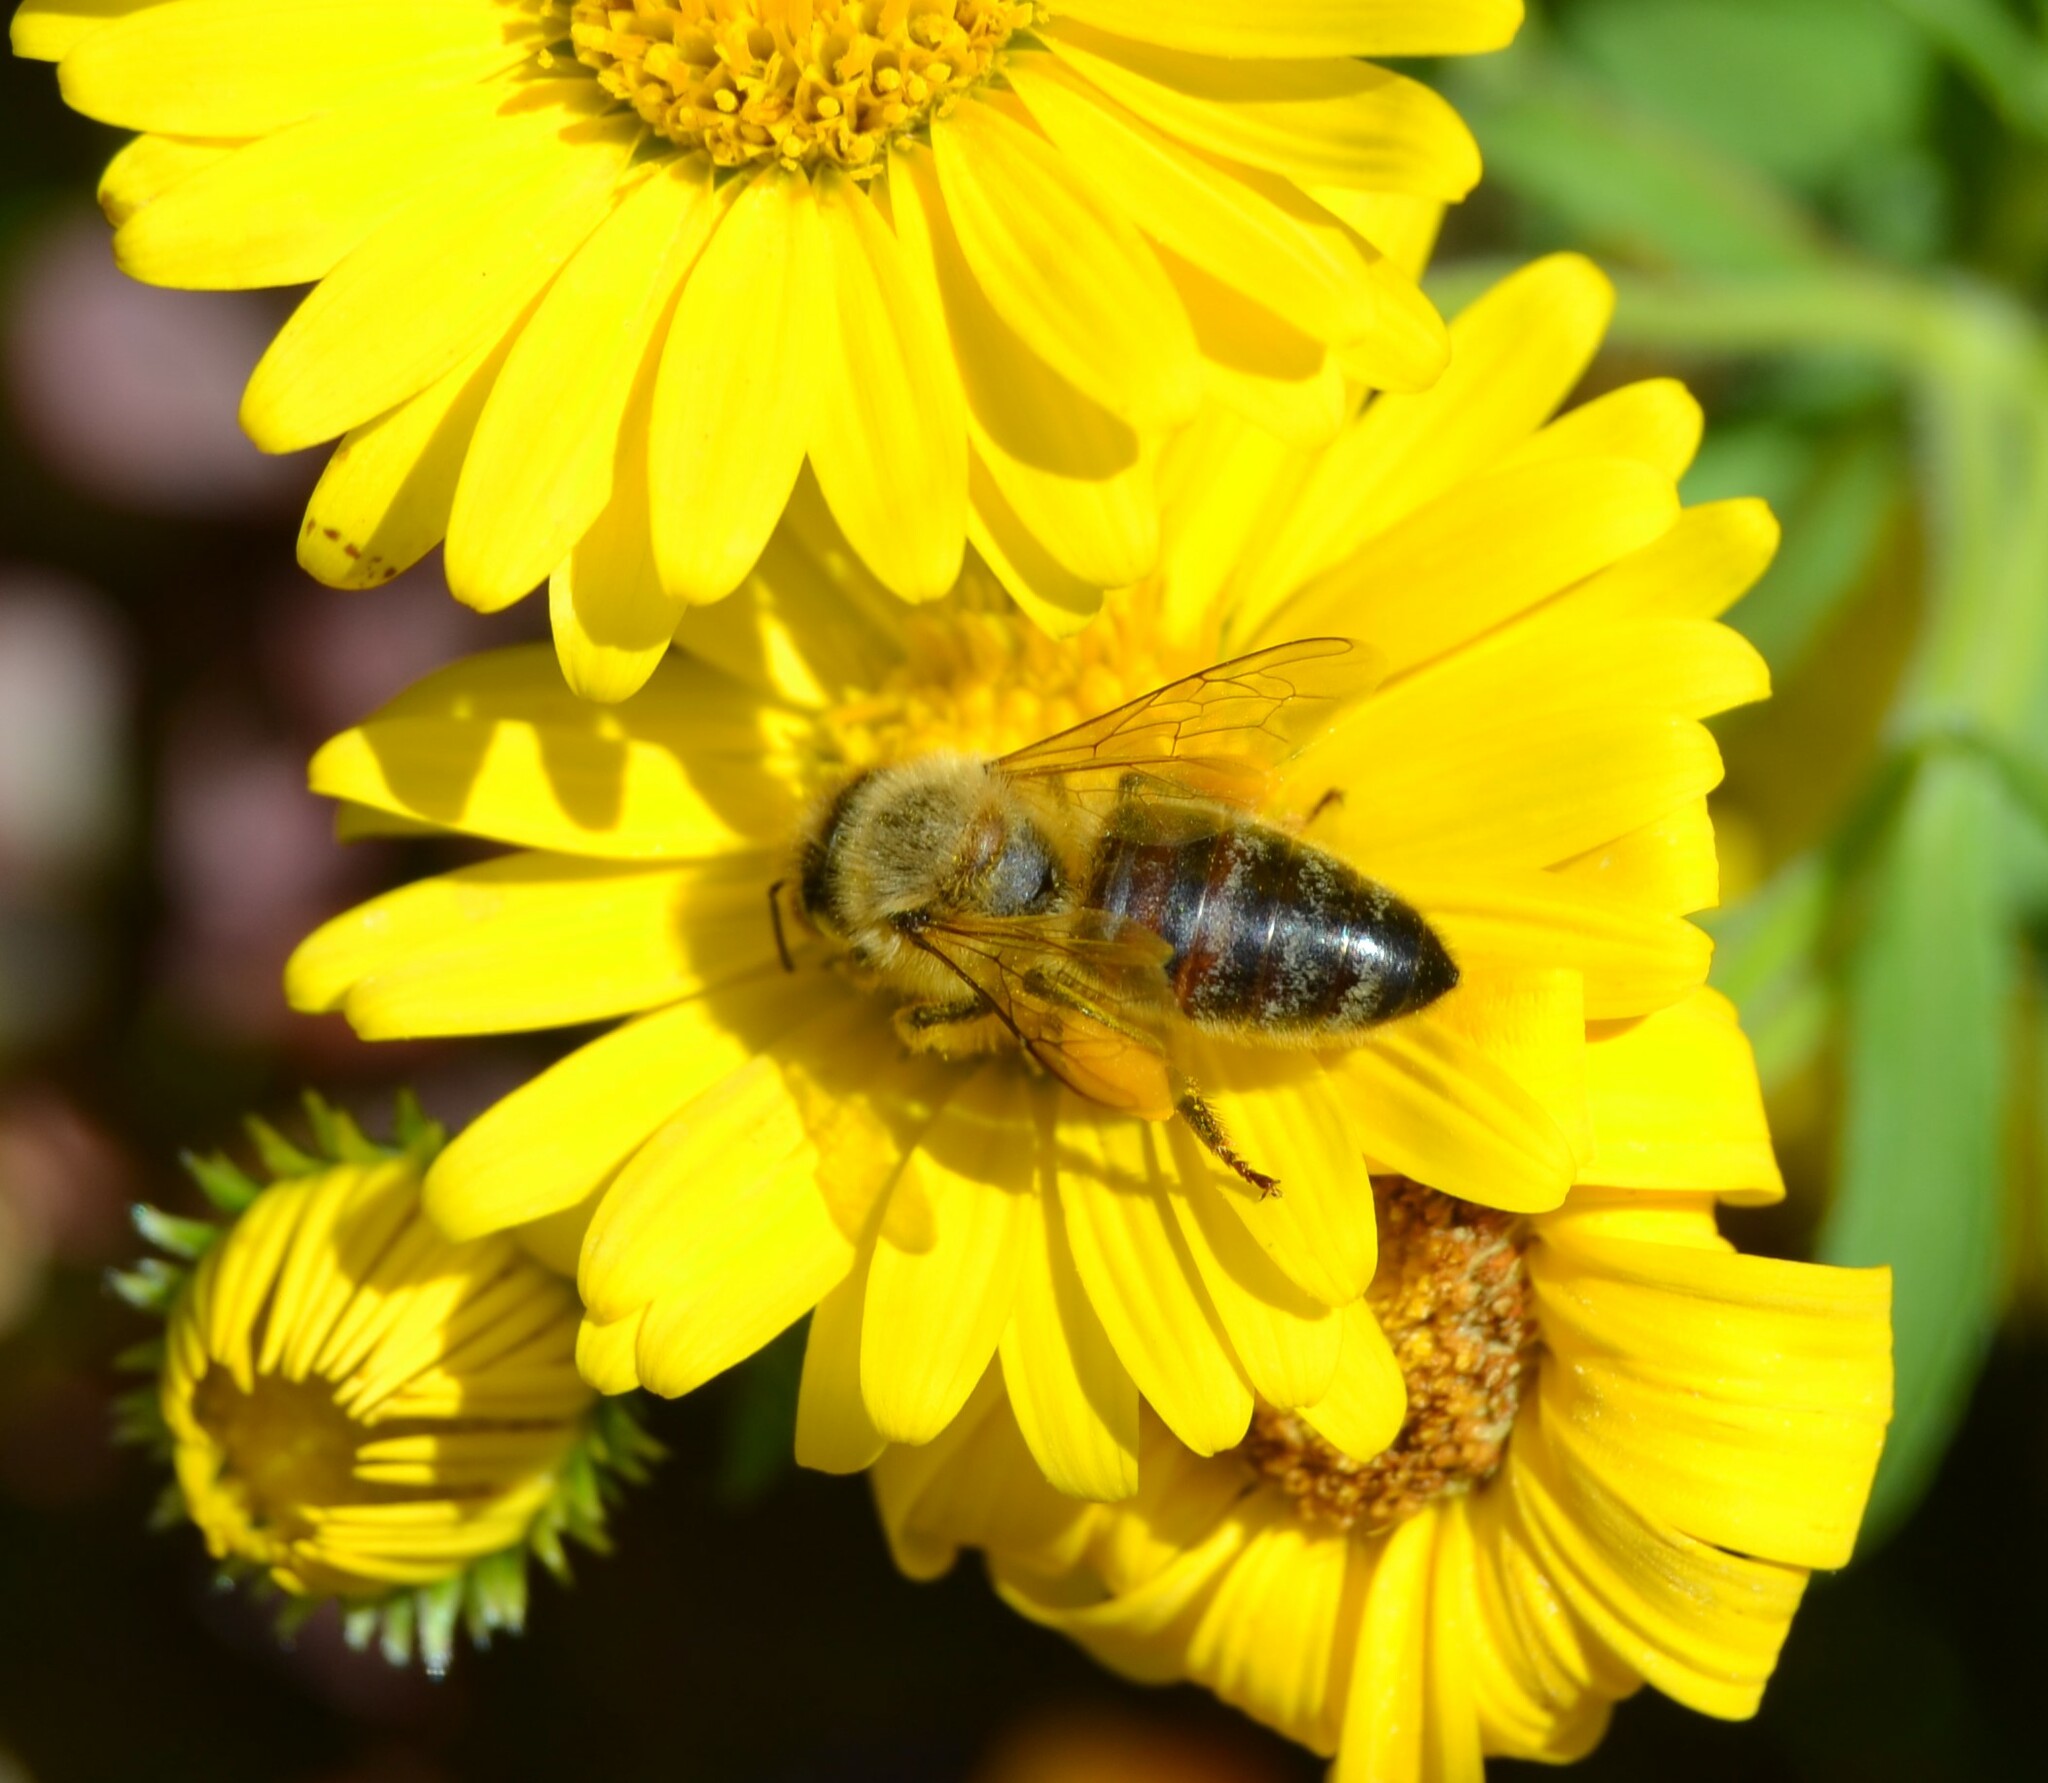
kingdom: Animalia
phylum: Arthropoda
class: Insecta
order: Hymenoptera
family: Apidae
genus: Apis
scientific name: Apis mellifera
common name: Honey bee
